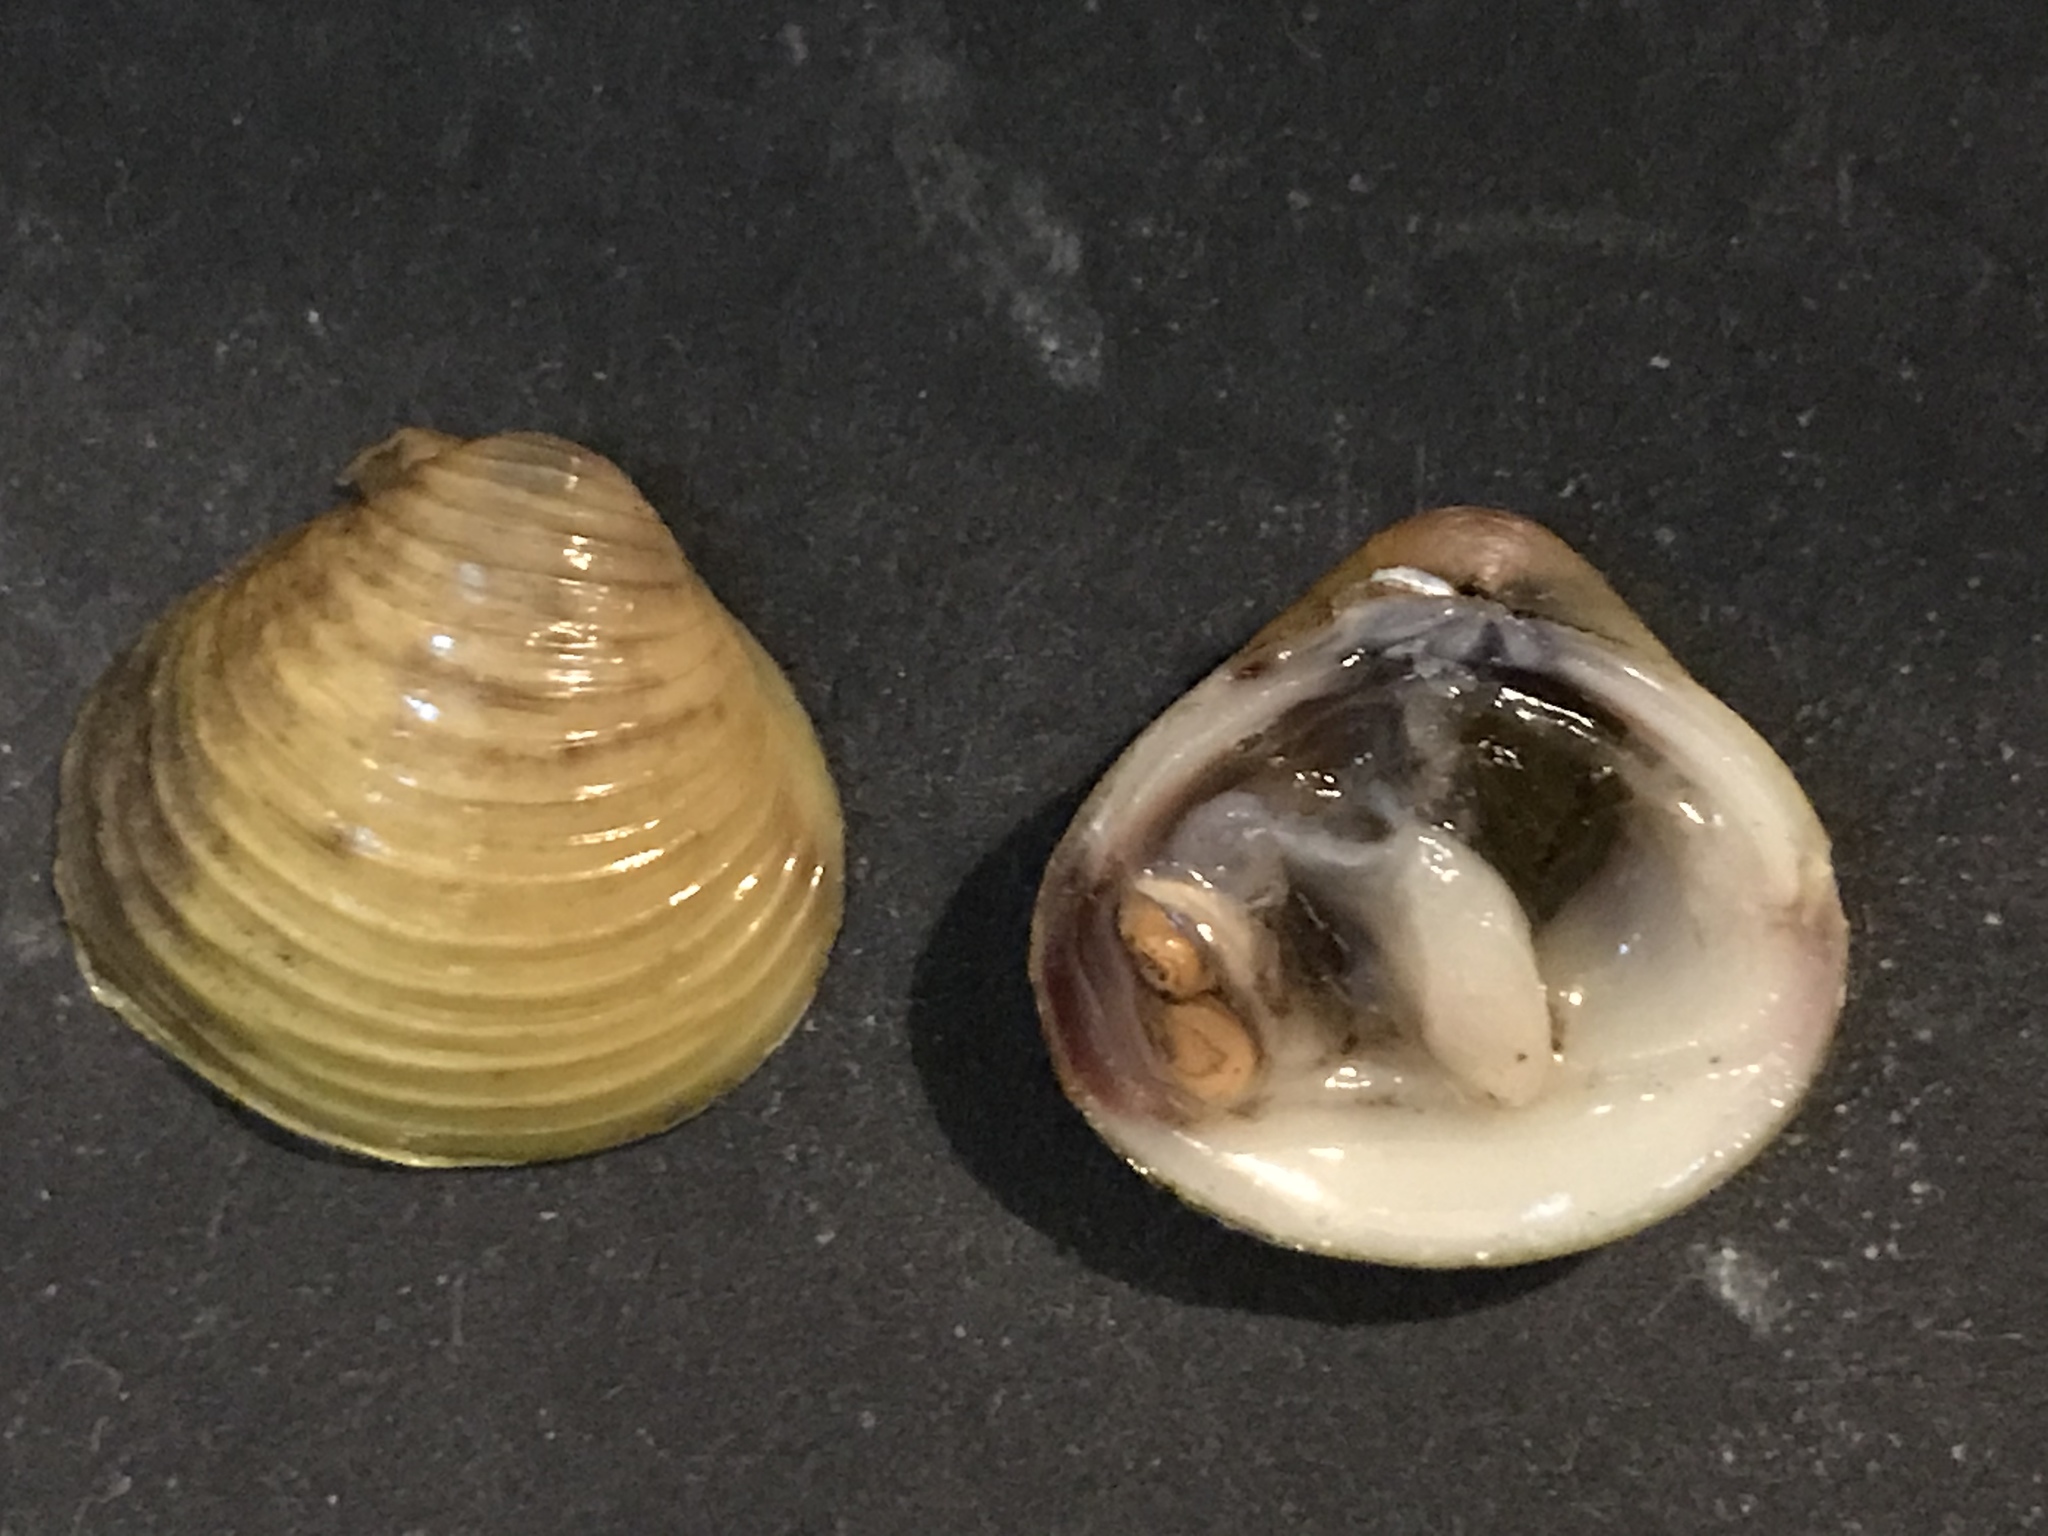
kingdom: Animalia
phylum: Mollusca
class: Bivalvia
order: Venerida
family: Cyrenidae
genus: Corbicula
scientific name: Corbicula fluminea
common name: Asian clam
